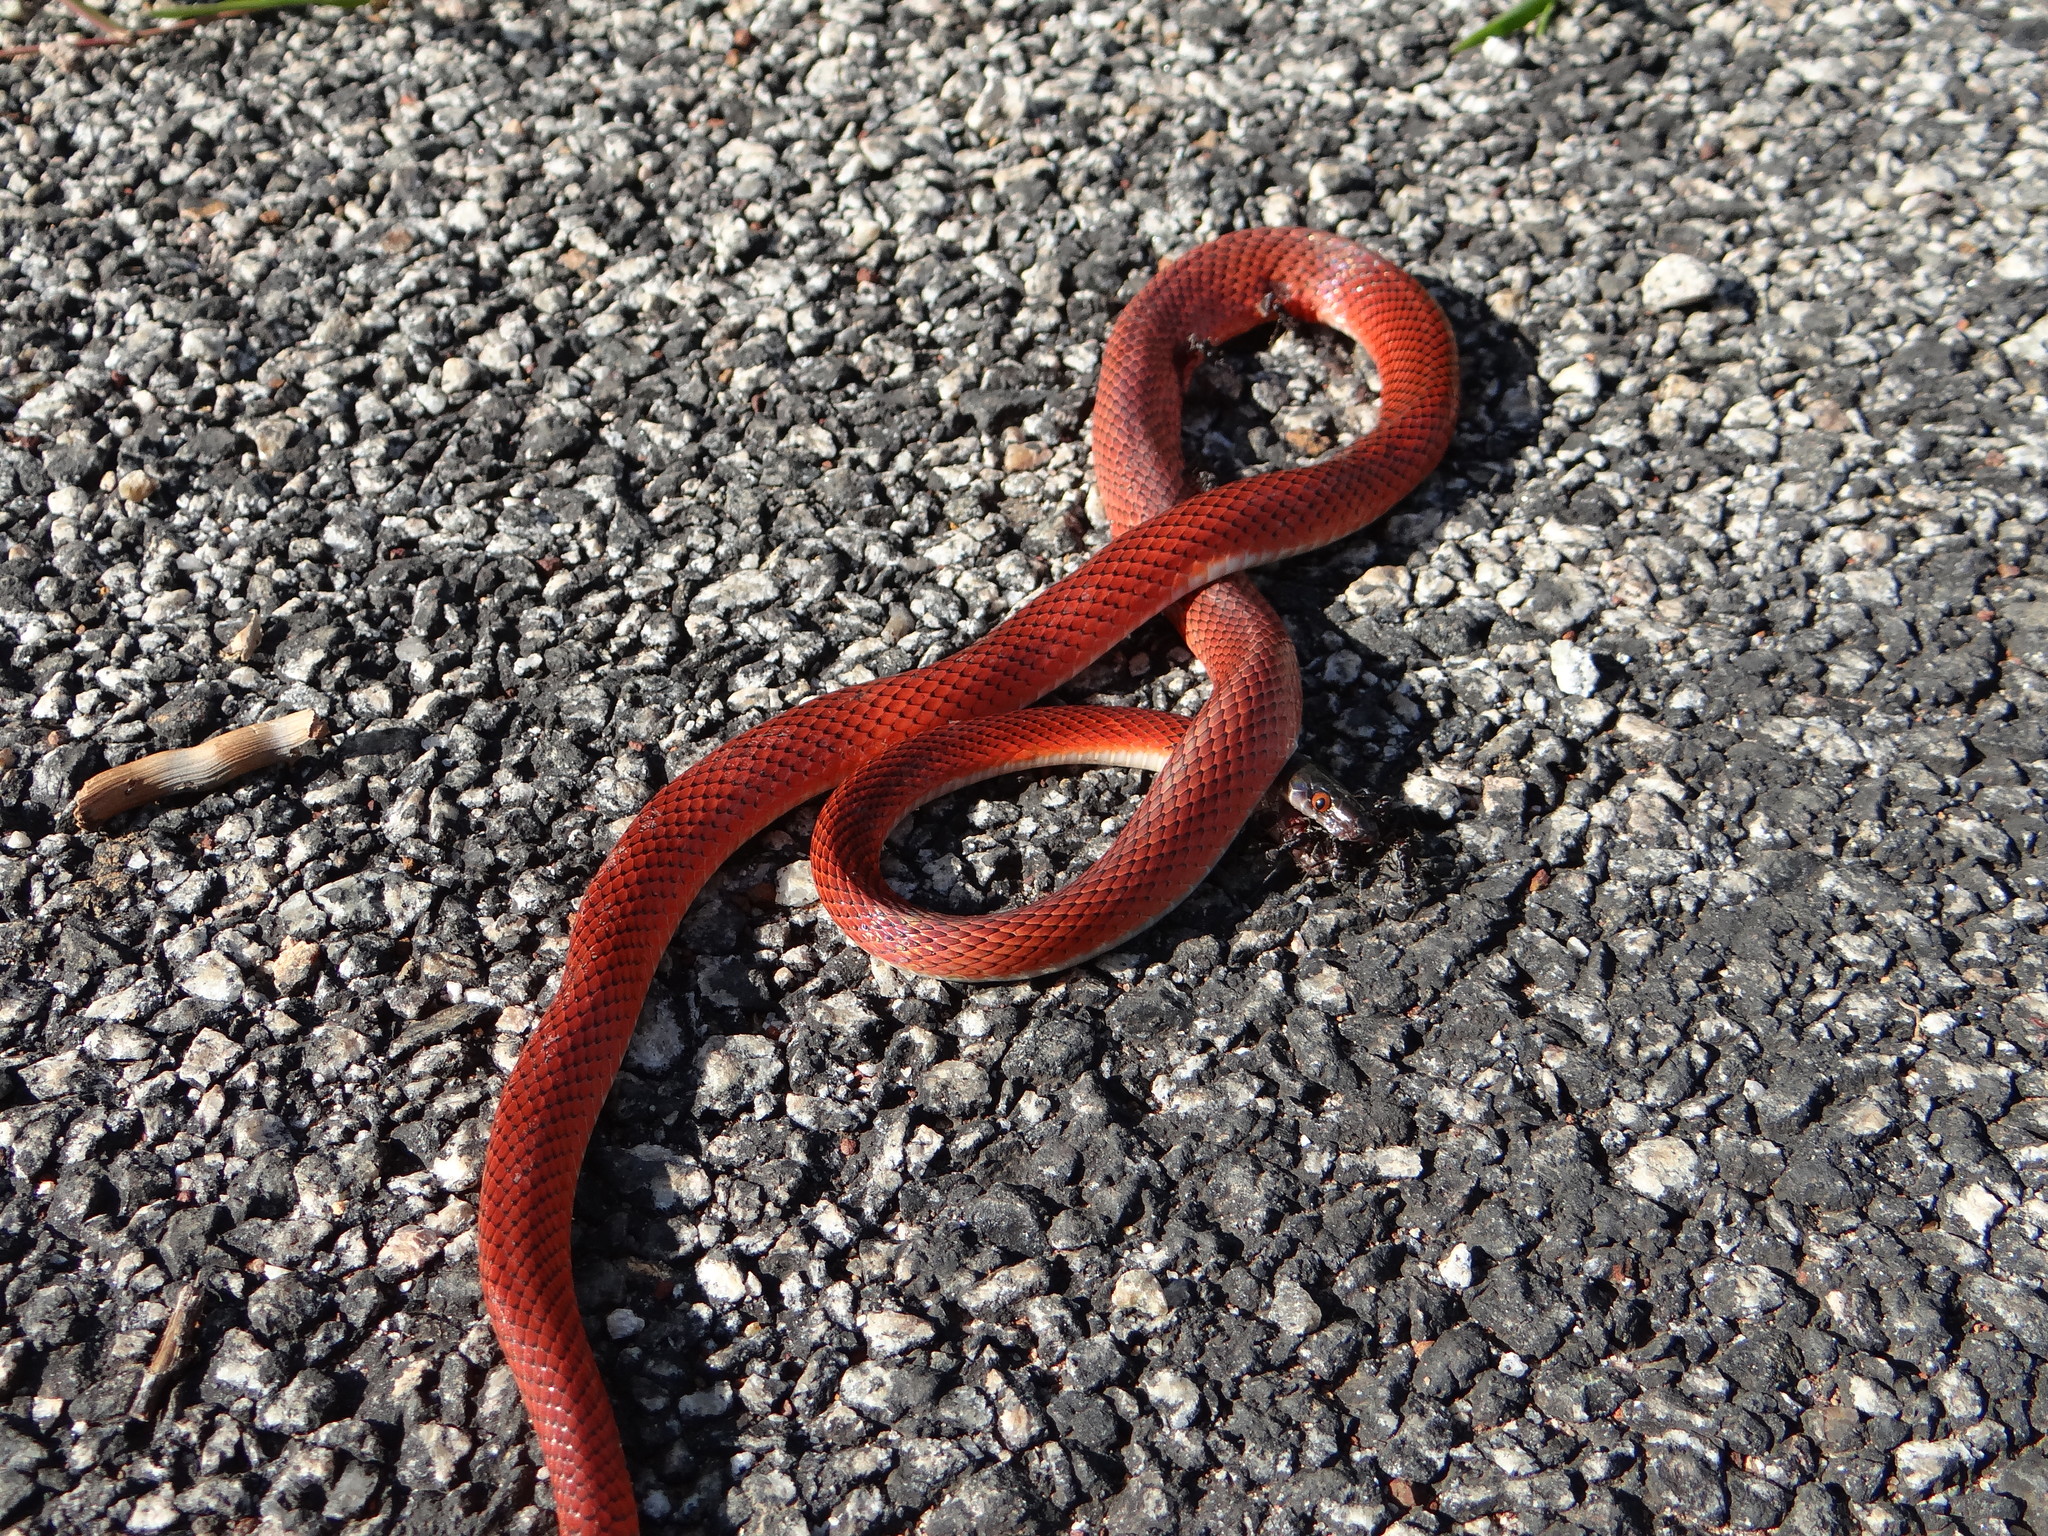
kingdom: Animalia
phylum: Chordata
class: Squamata
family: Colubridae
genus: Oxyrhopus
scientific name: Oxyrhopus melanogenys
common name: Tschudi's false coral snake
